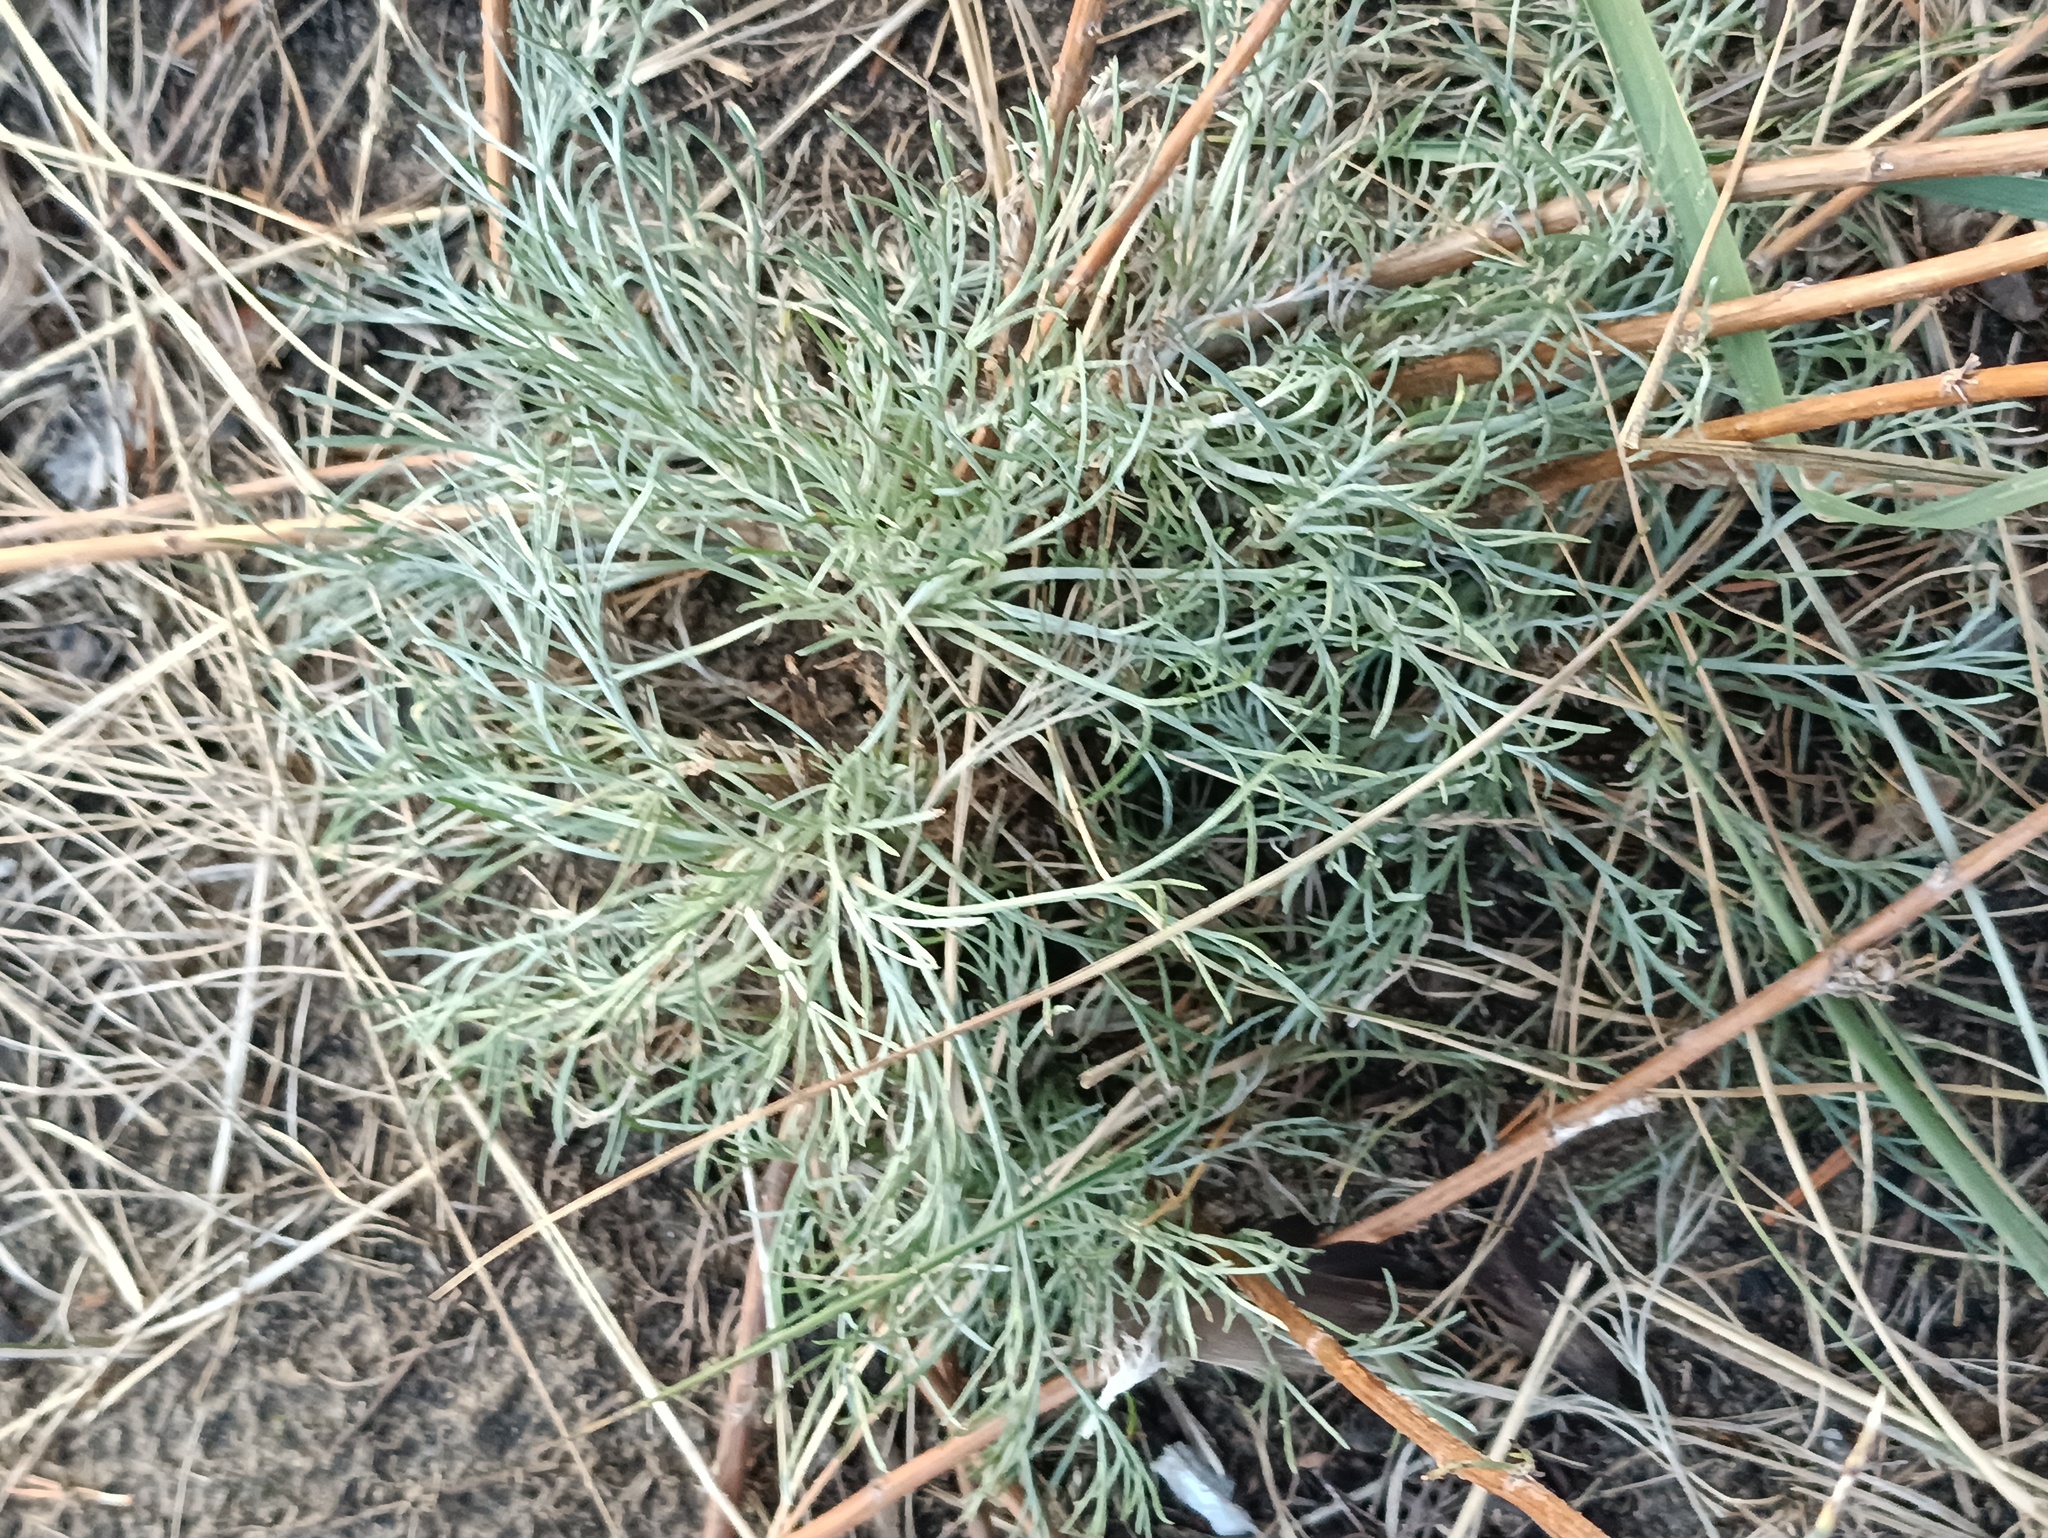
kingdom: Plantae
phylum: Tracheophyta
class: Magnoliopsida
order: Asterales
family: Asteraceae
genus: Artemisia
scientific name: Artemisia campestris
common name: Field wormwood
